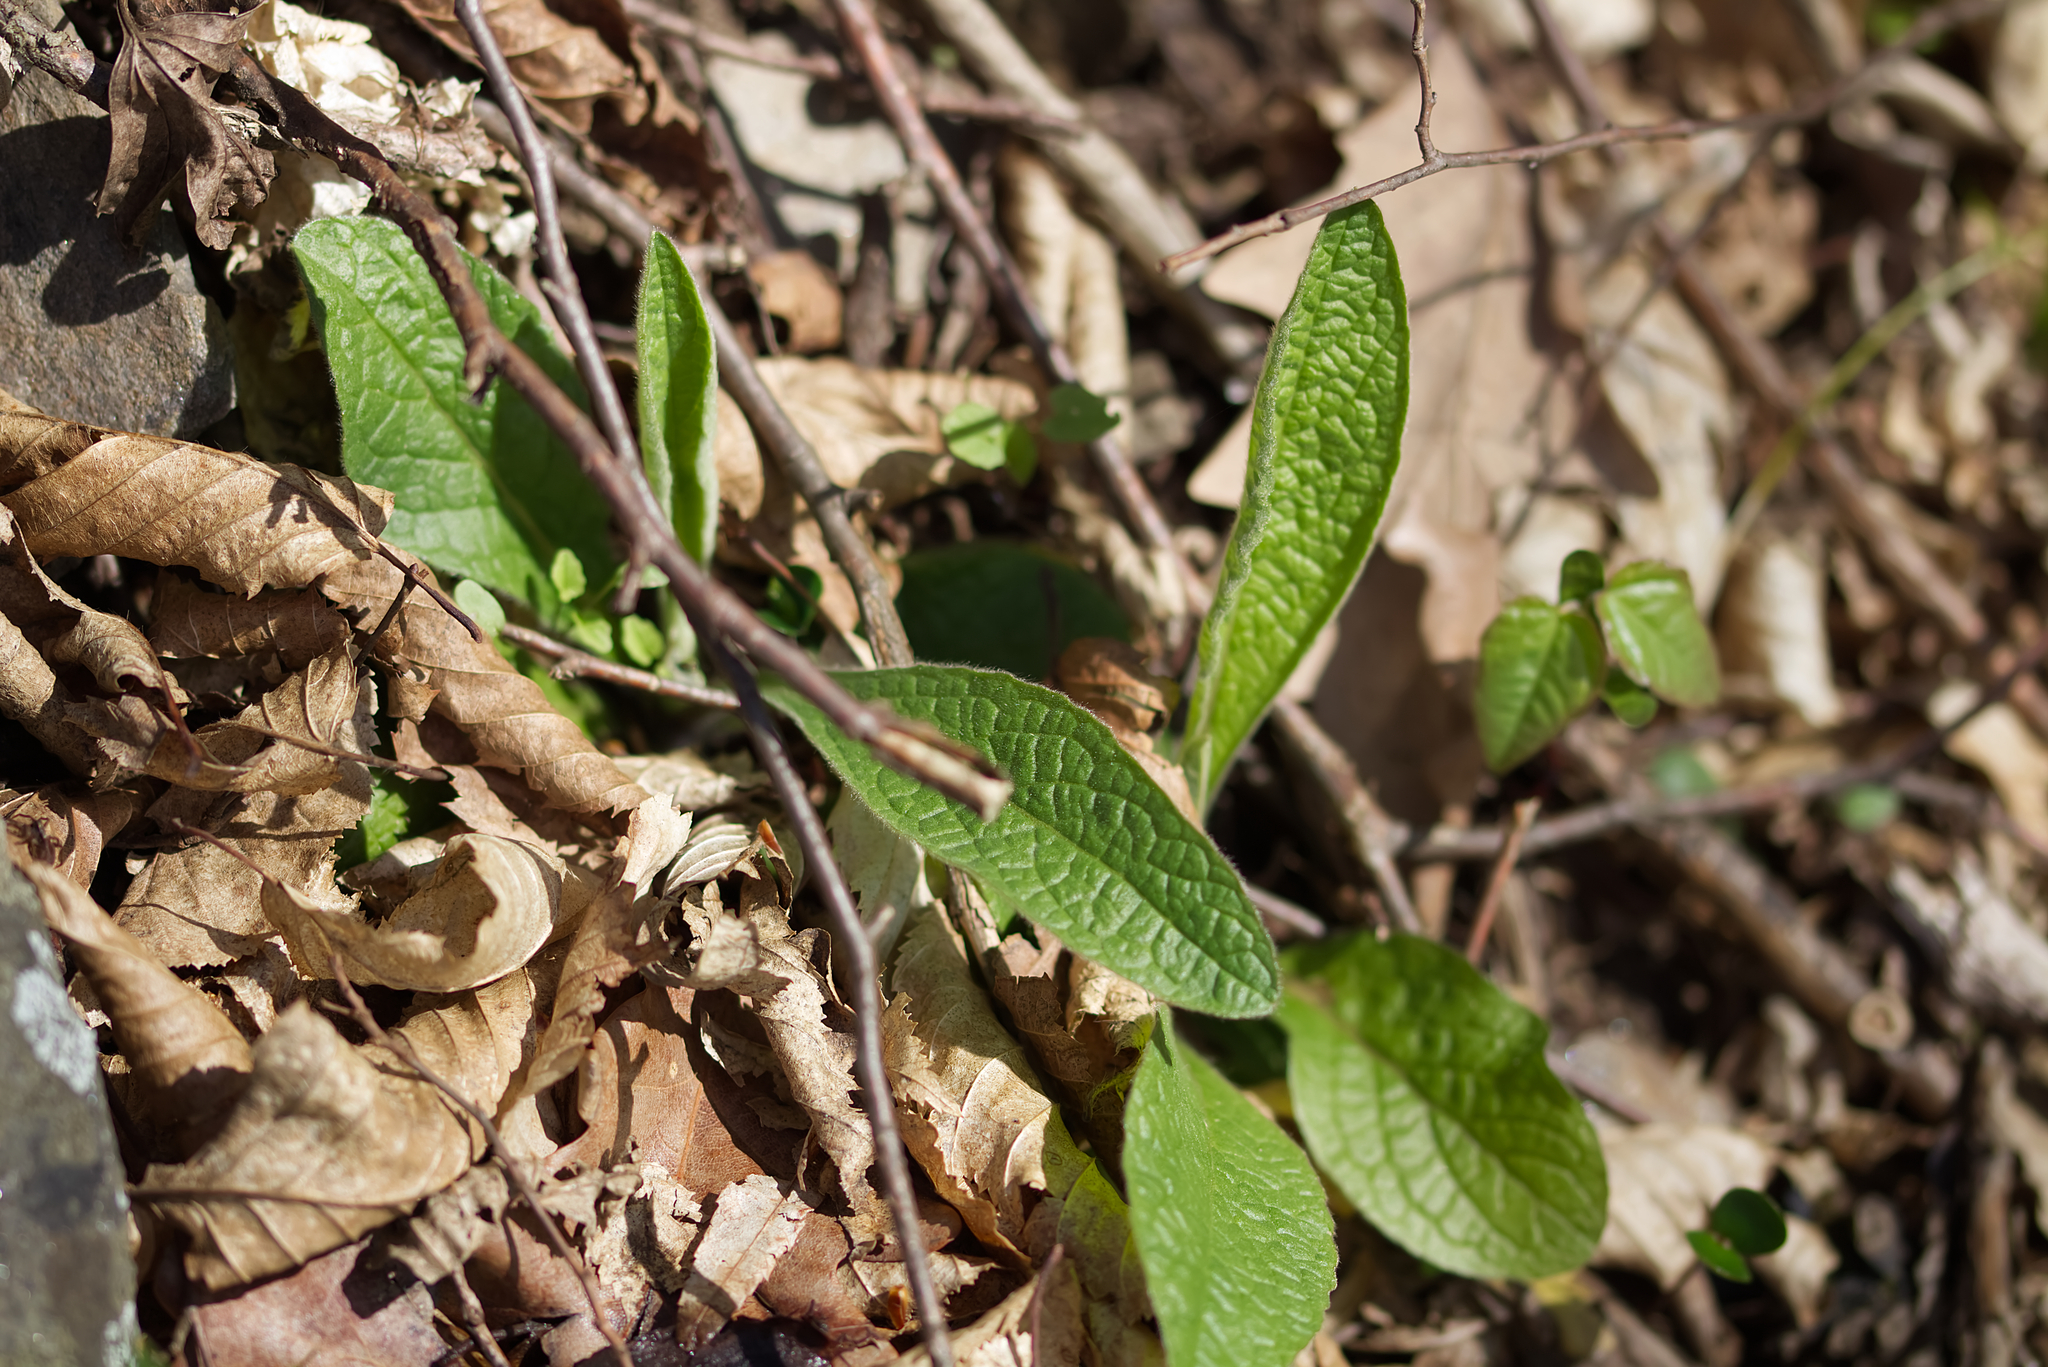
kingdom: Plantae
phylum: Tracheophyta
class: Magnoliopsida
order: Asterales
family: Asteraceae
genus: Pentanema
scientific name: Pentanema squarrosum
